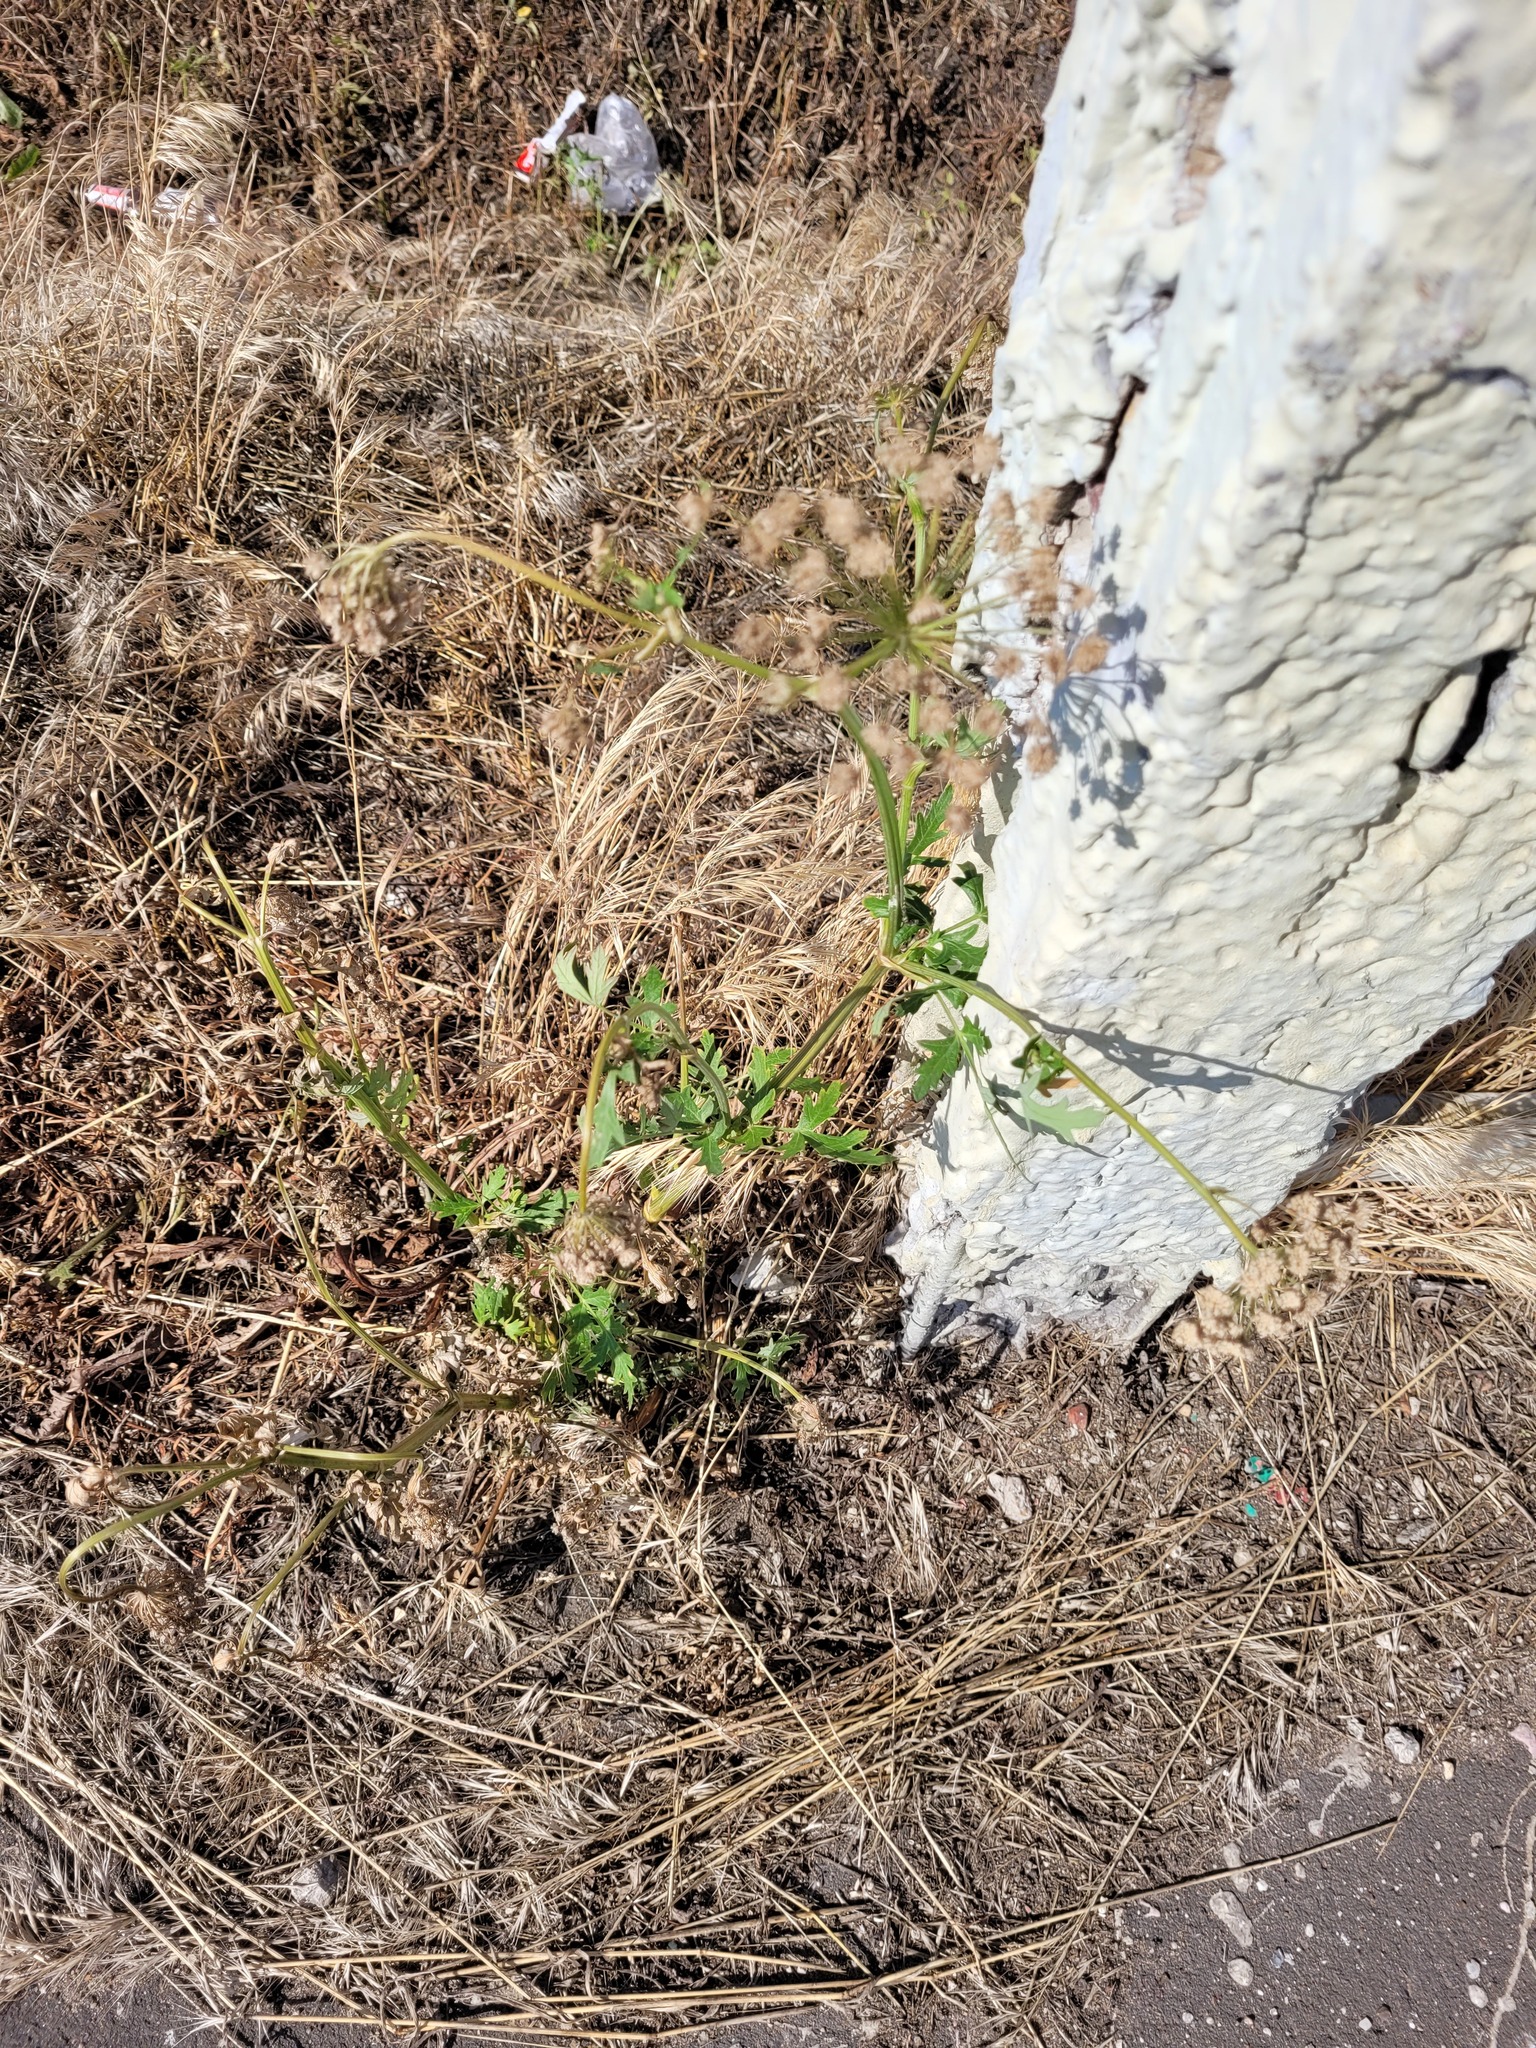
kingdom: Plantae
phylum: Tracheophyta
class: Magnoliopsida
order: Apiales
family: Apiaceae
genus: Seseli
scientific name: Seseli libanotis
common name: Mooncarrot
